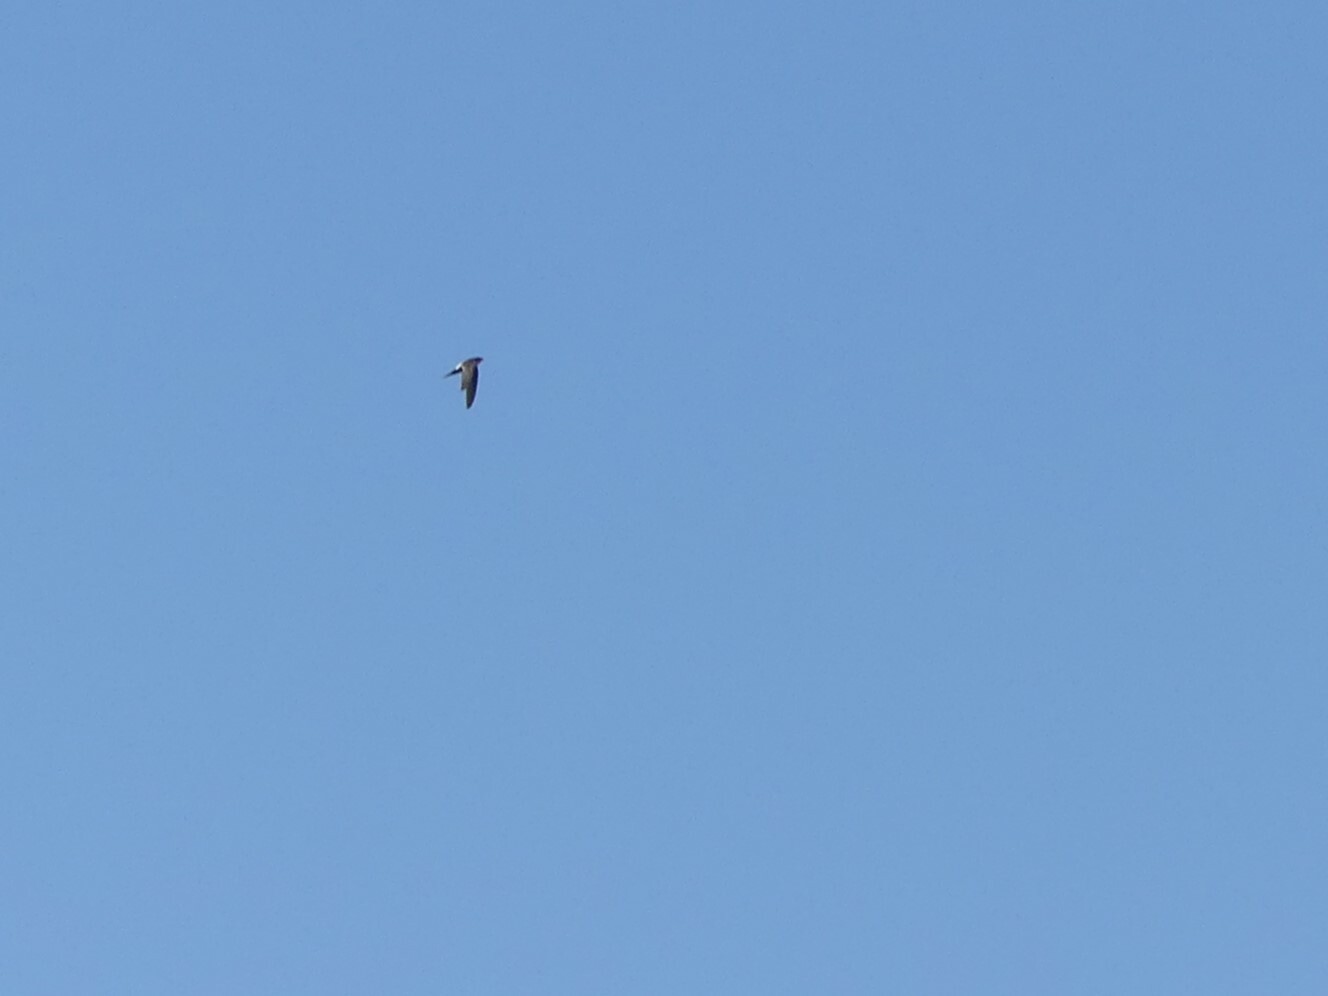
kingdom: Animalia
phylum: Chordata
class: Aves
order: Apodiformes
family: Apodidae
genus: Aeronautes
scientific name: Aeronautes saxatalis
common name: White-throated swift
